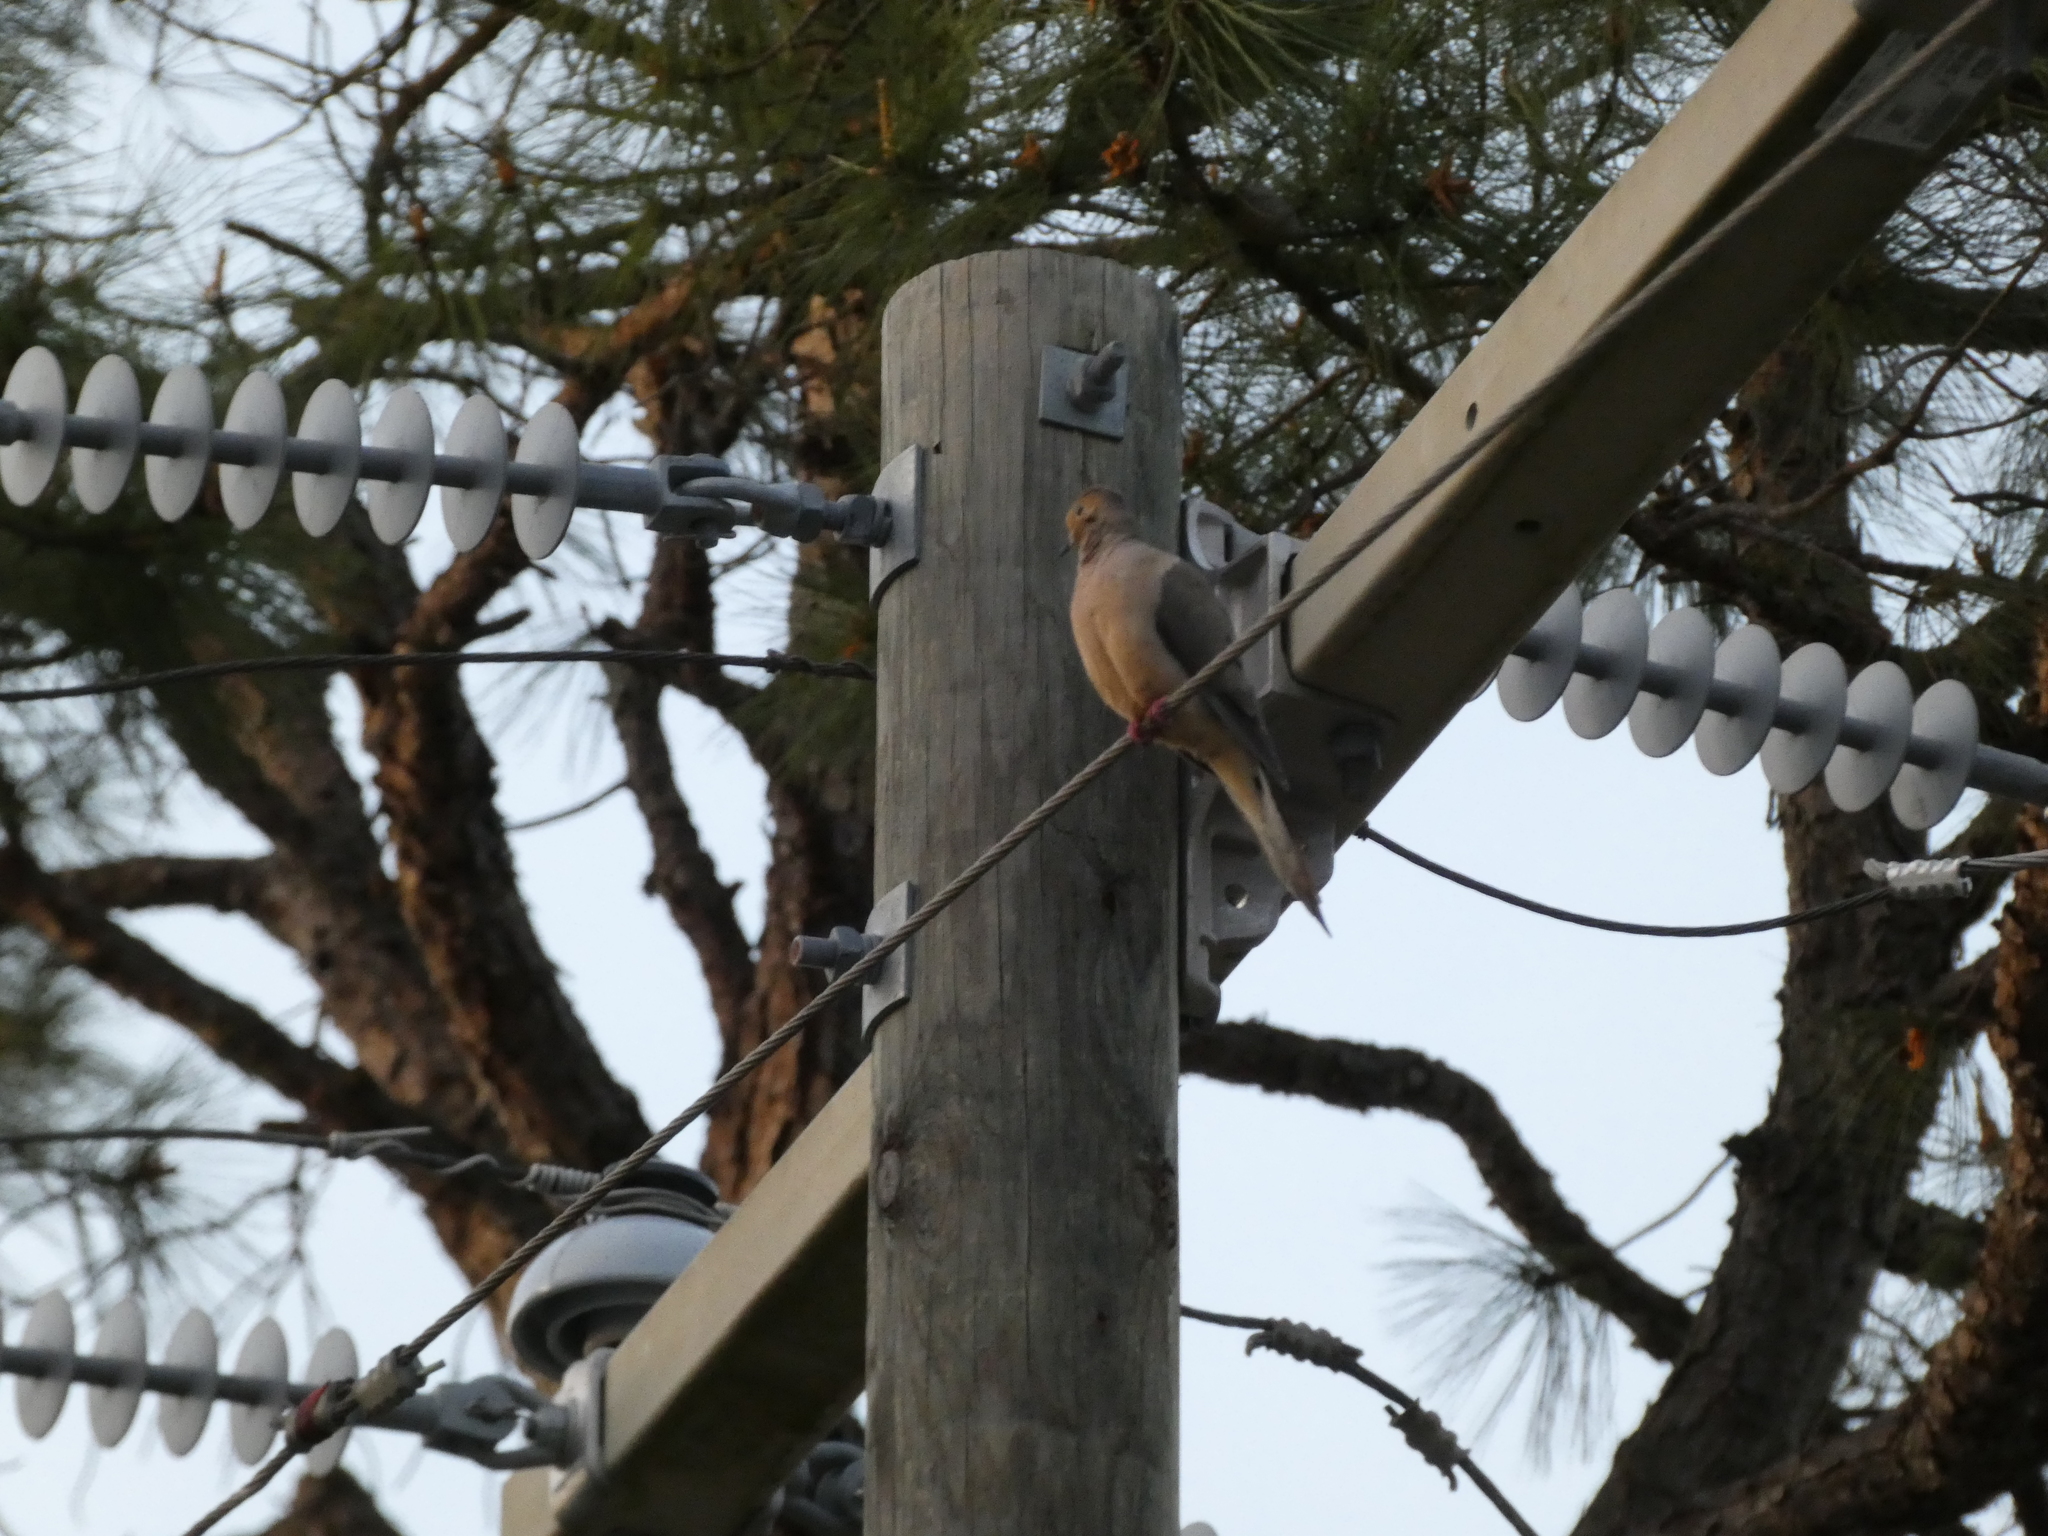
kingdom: Animalia
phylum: Chordata
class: Aves
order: Columbiformes
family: Columbidae
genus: Zenaida
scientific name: Zenaida macroura
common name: Mourning dove
